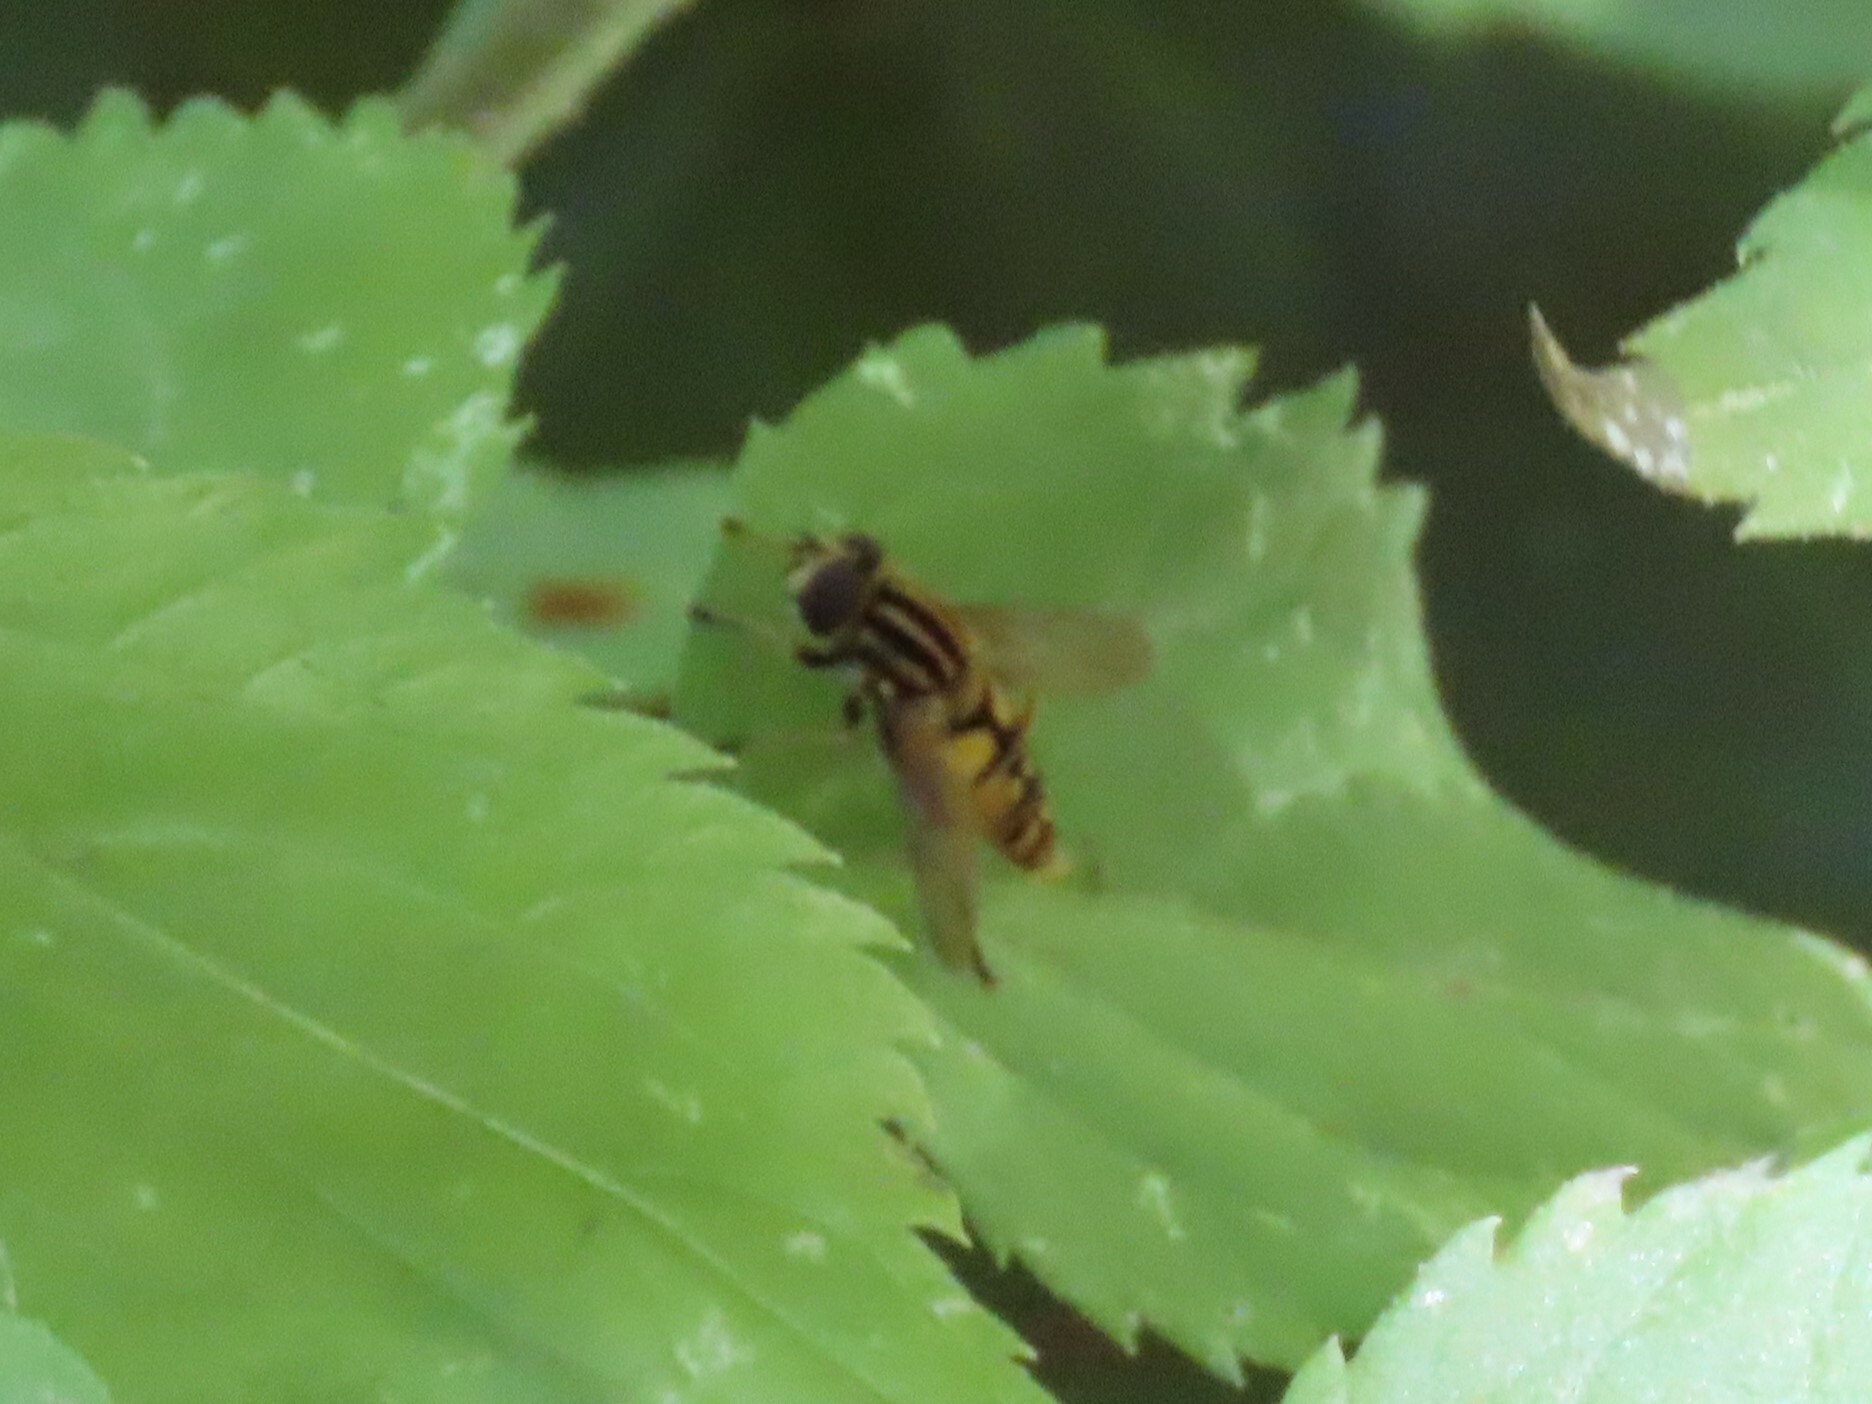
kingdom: Animalia
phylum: Arthropoda
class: Insecta
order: Diptera
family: Syrphidae
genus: Helophilus
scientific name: Helophilus pendulus
